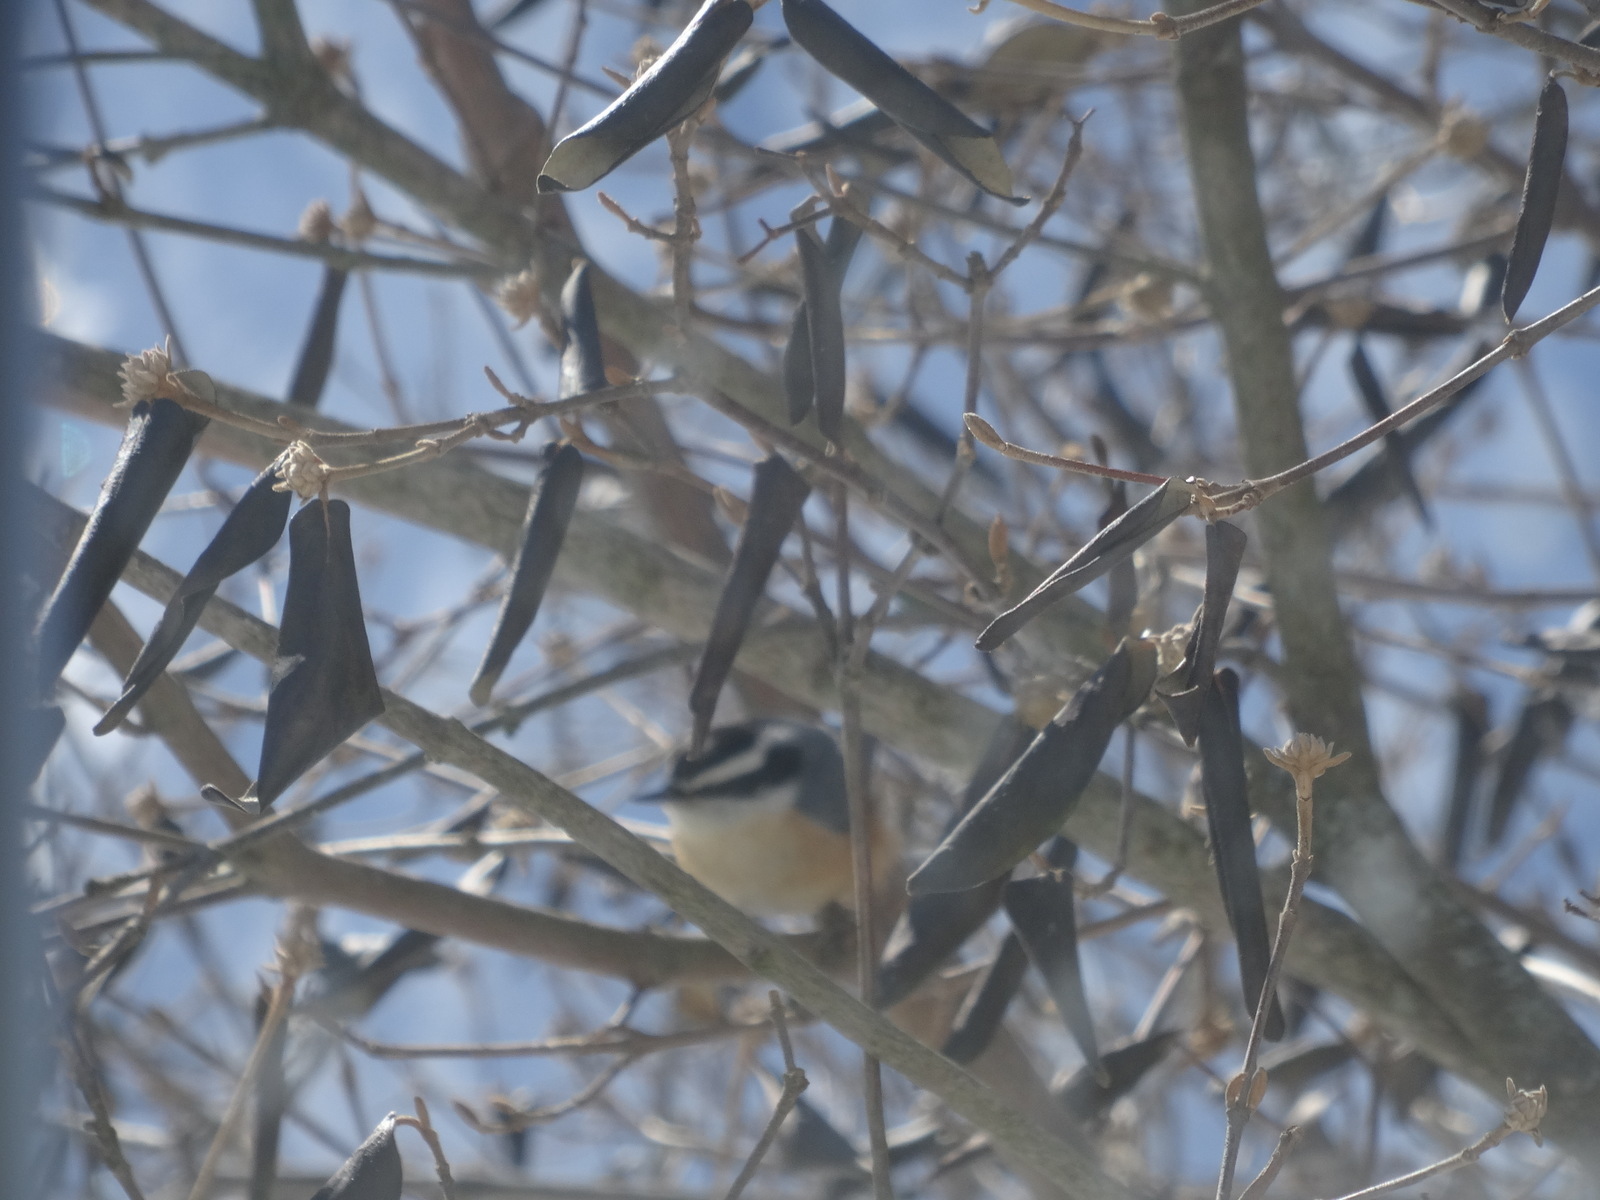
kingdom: Animalia
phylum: Chordata
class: Aves
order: Passeriformes
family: Sittidae
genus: Sitta
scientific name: Sitta canadensis
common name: Red-breasted nuthatch
